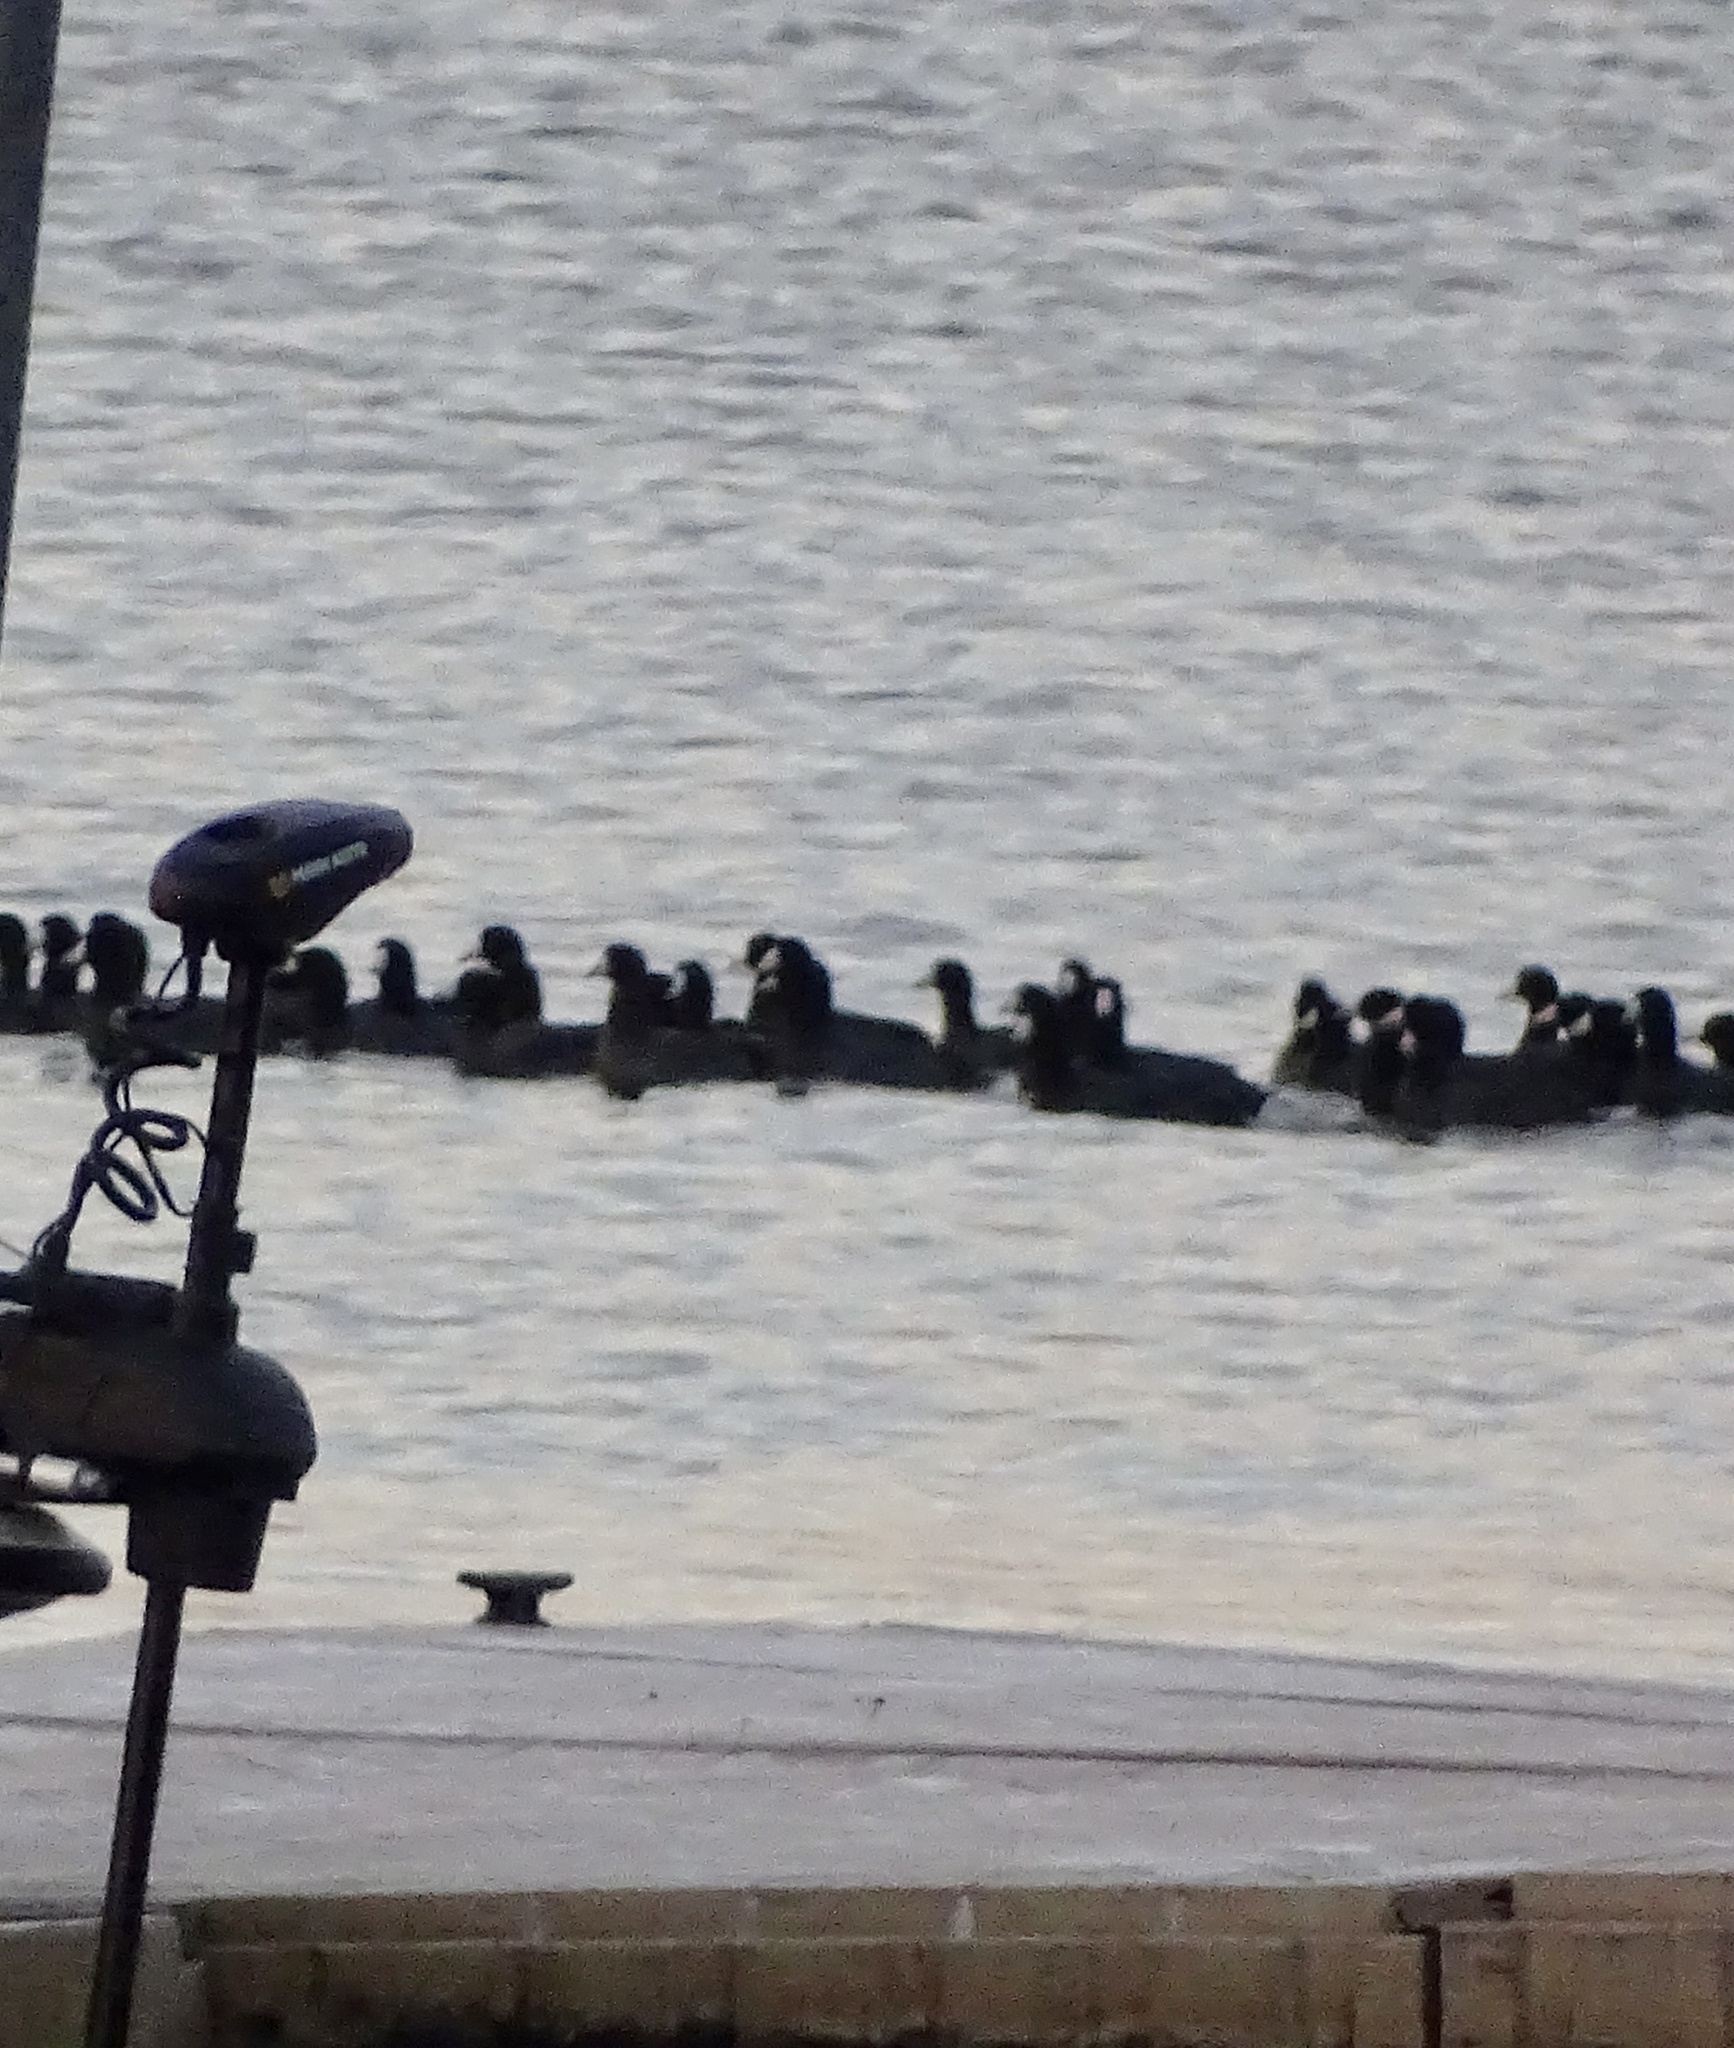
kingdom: Animalia
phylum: Chordata
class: Aves
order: Gruiformes
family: Rallidae
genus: Fulica
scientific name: Fulica americana
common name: American coot
